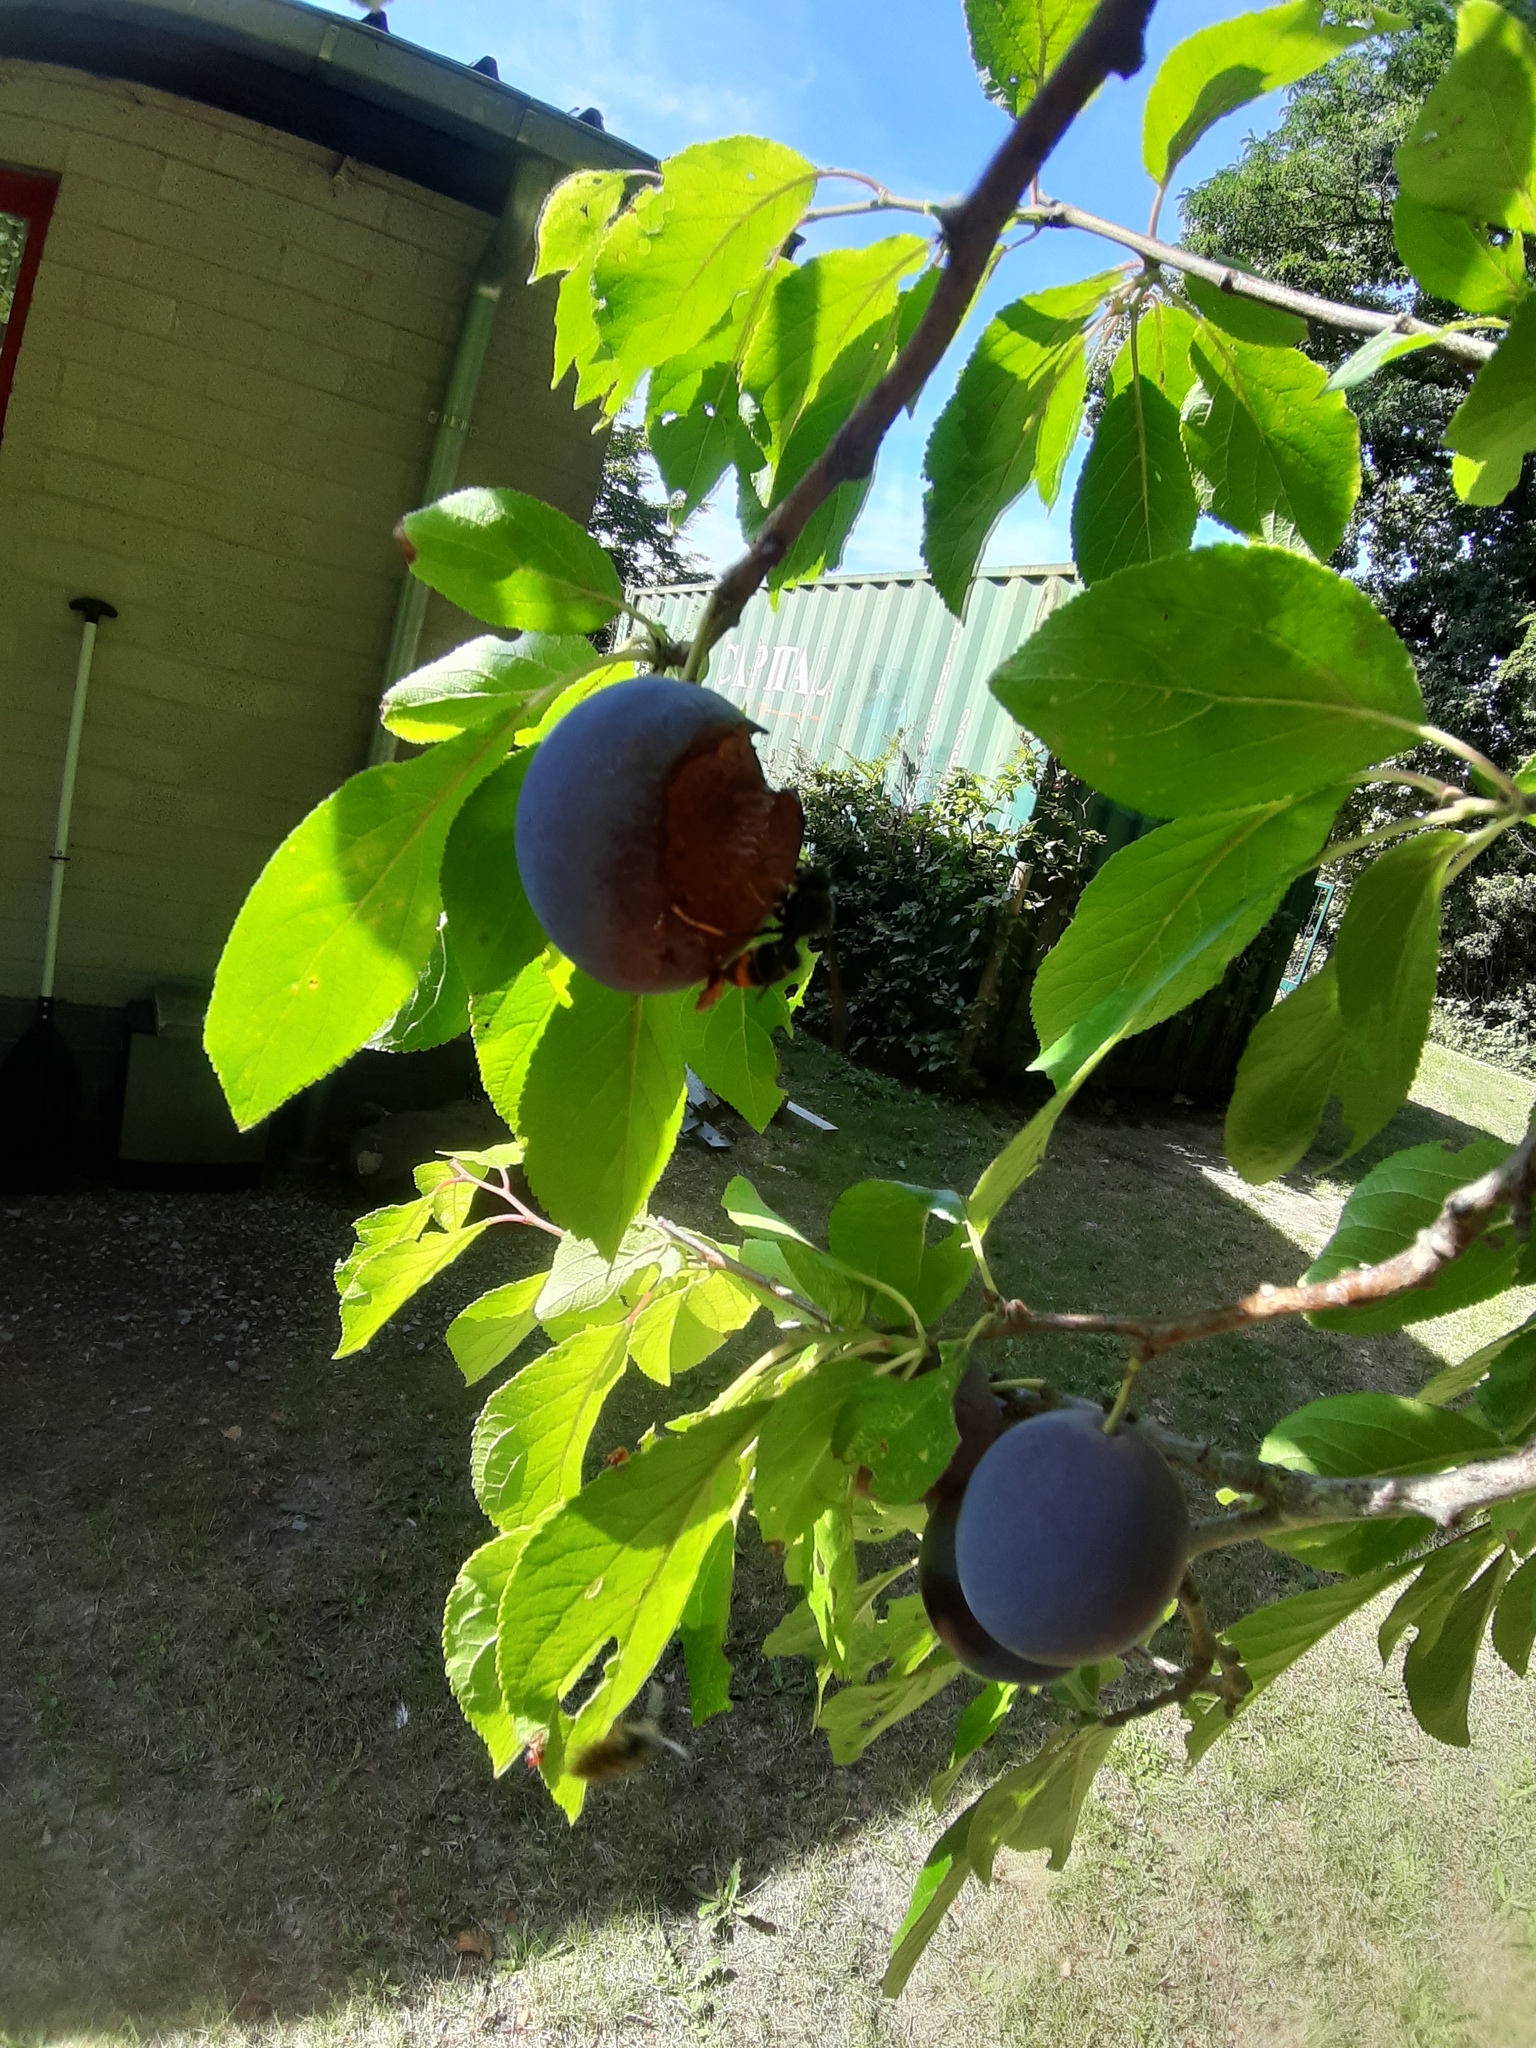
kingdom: Animalia
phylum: Arthropoda
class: Insecta
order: Hymenoptera
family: Vespidae
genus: Vespa
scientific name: Vespa velutina
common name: Asian hornet
